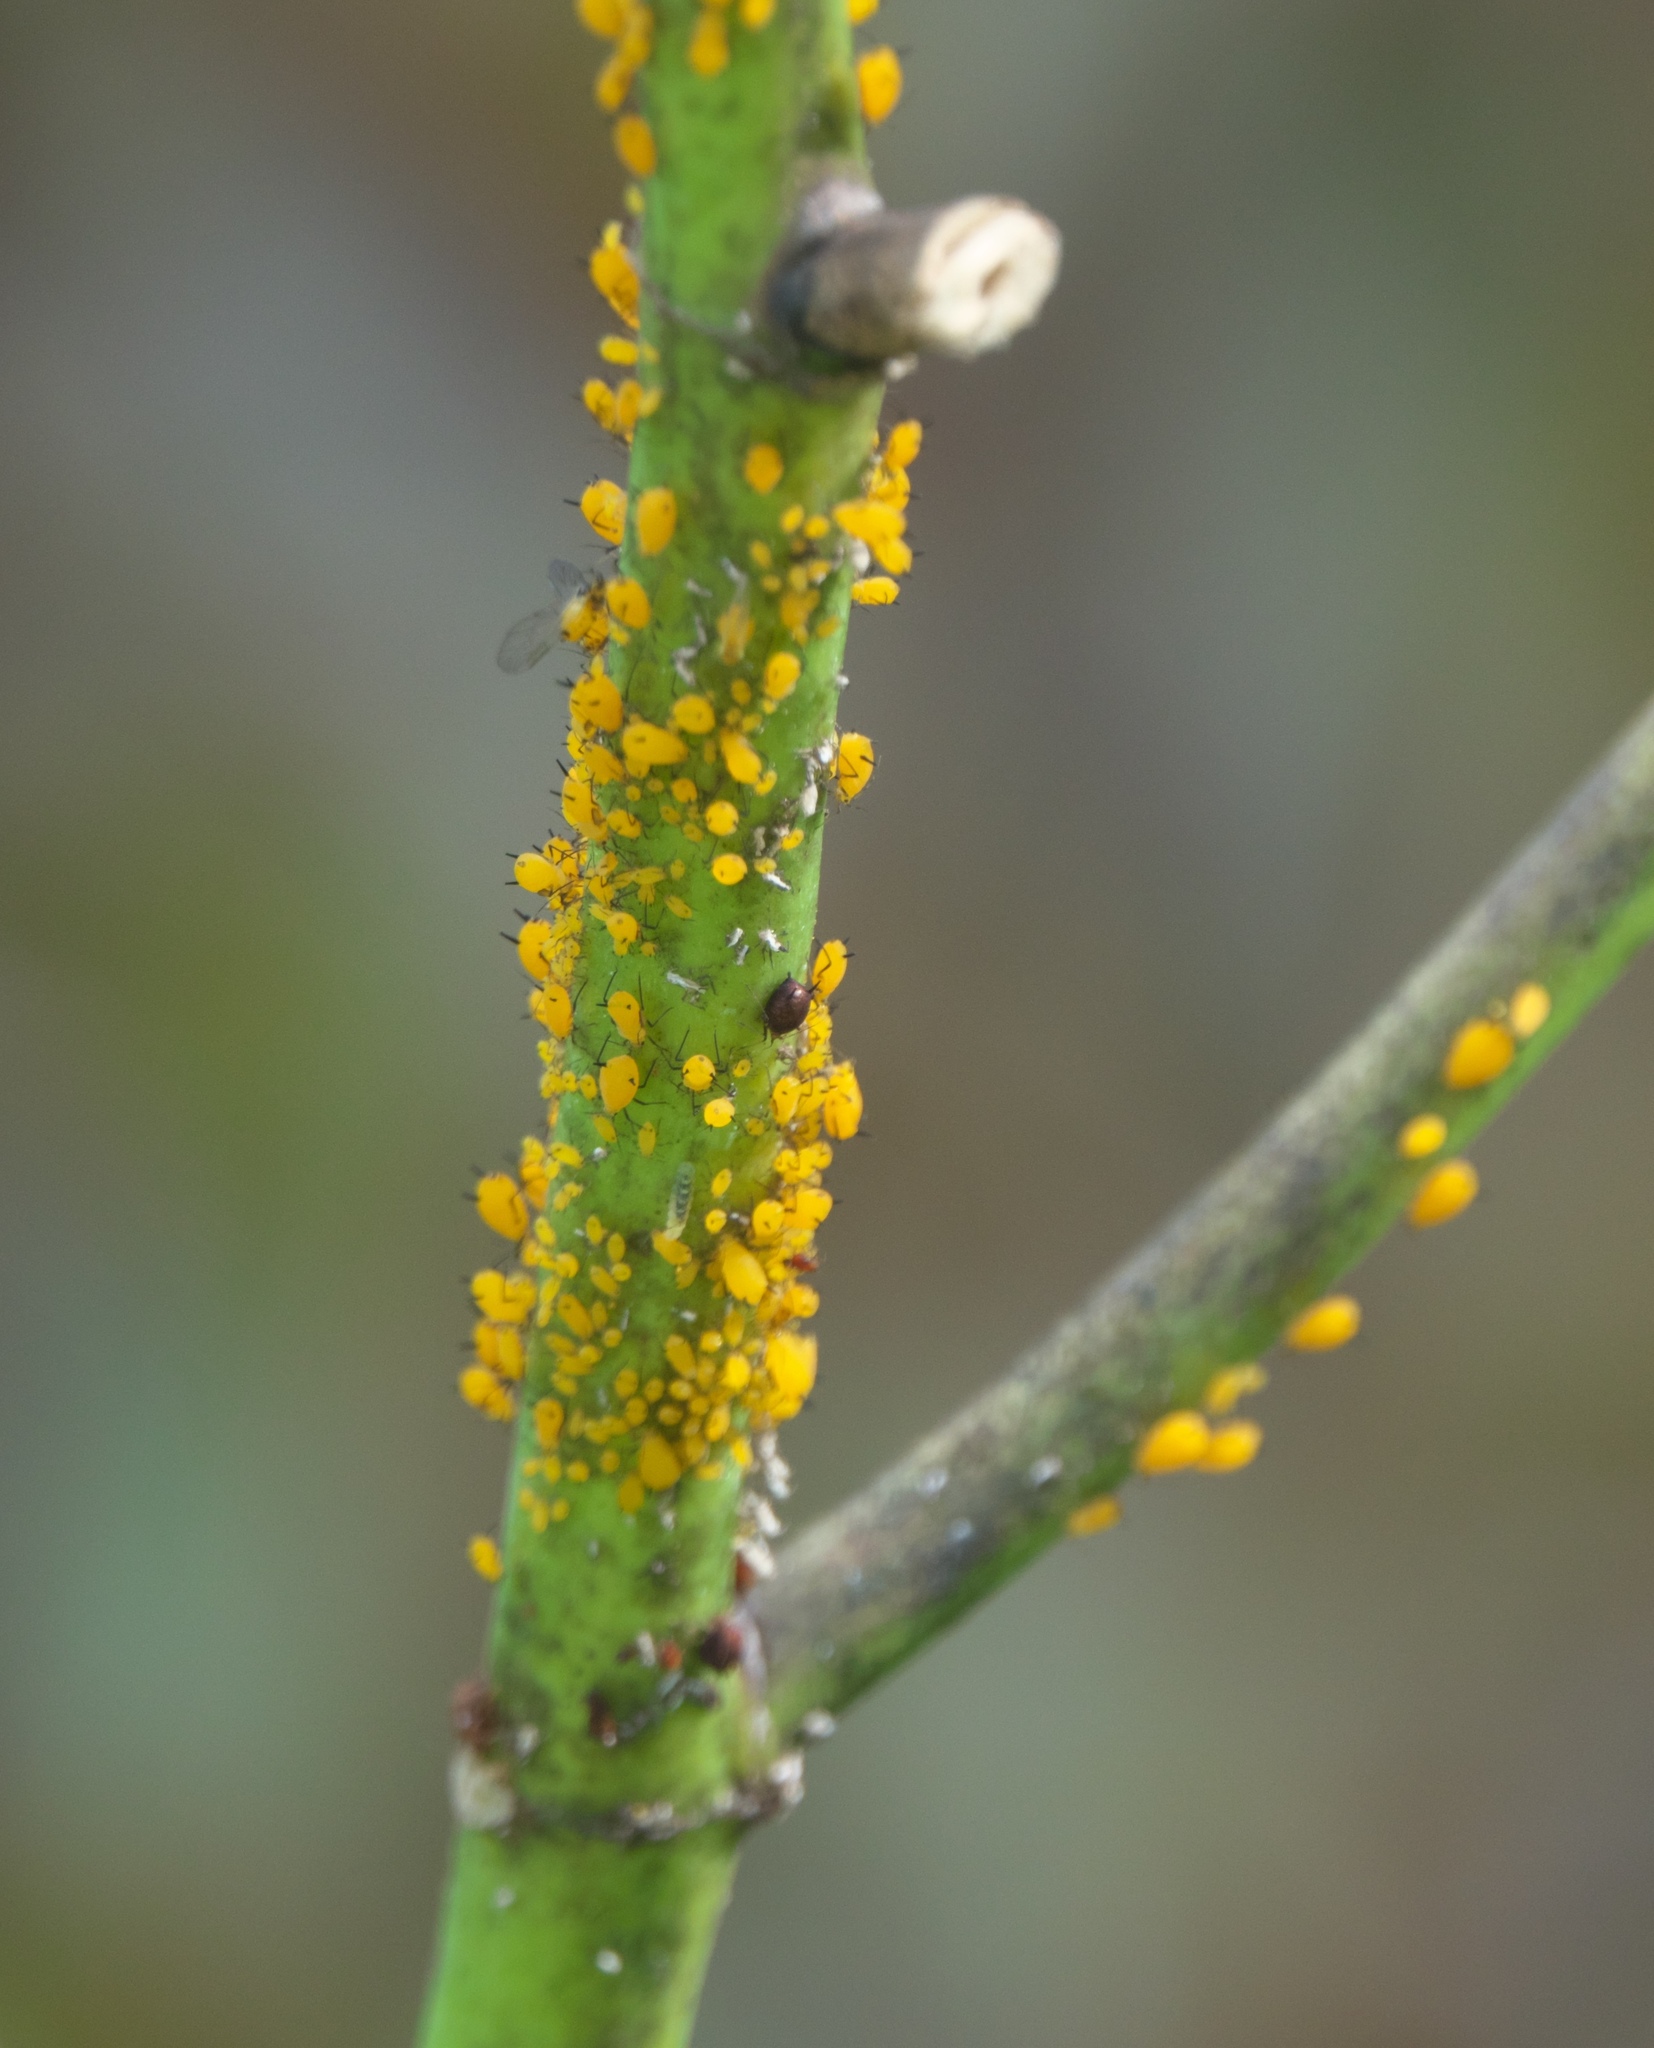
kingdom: Animalia
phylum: Arthropoda
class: Insecta
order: Hemiptera
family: Aphididae
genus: Aphis
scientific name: Aphis nerii
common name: Oleander aphid
